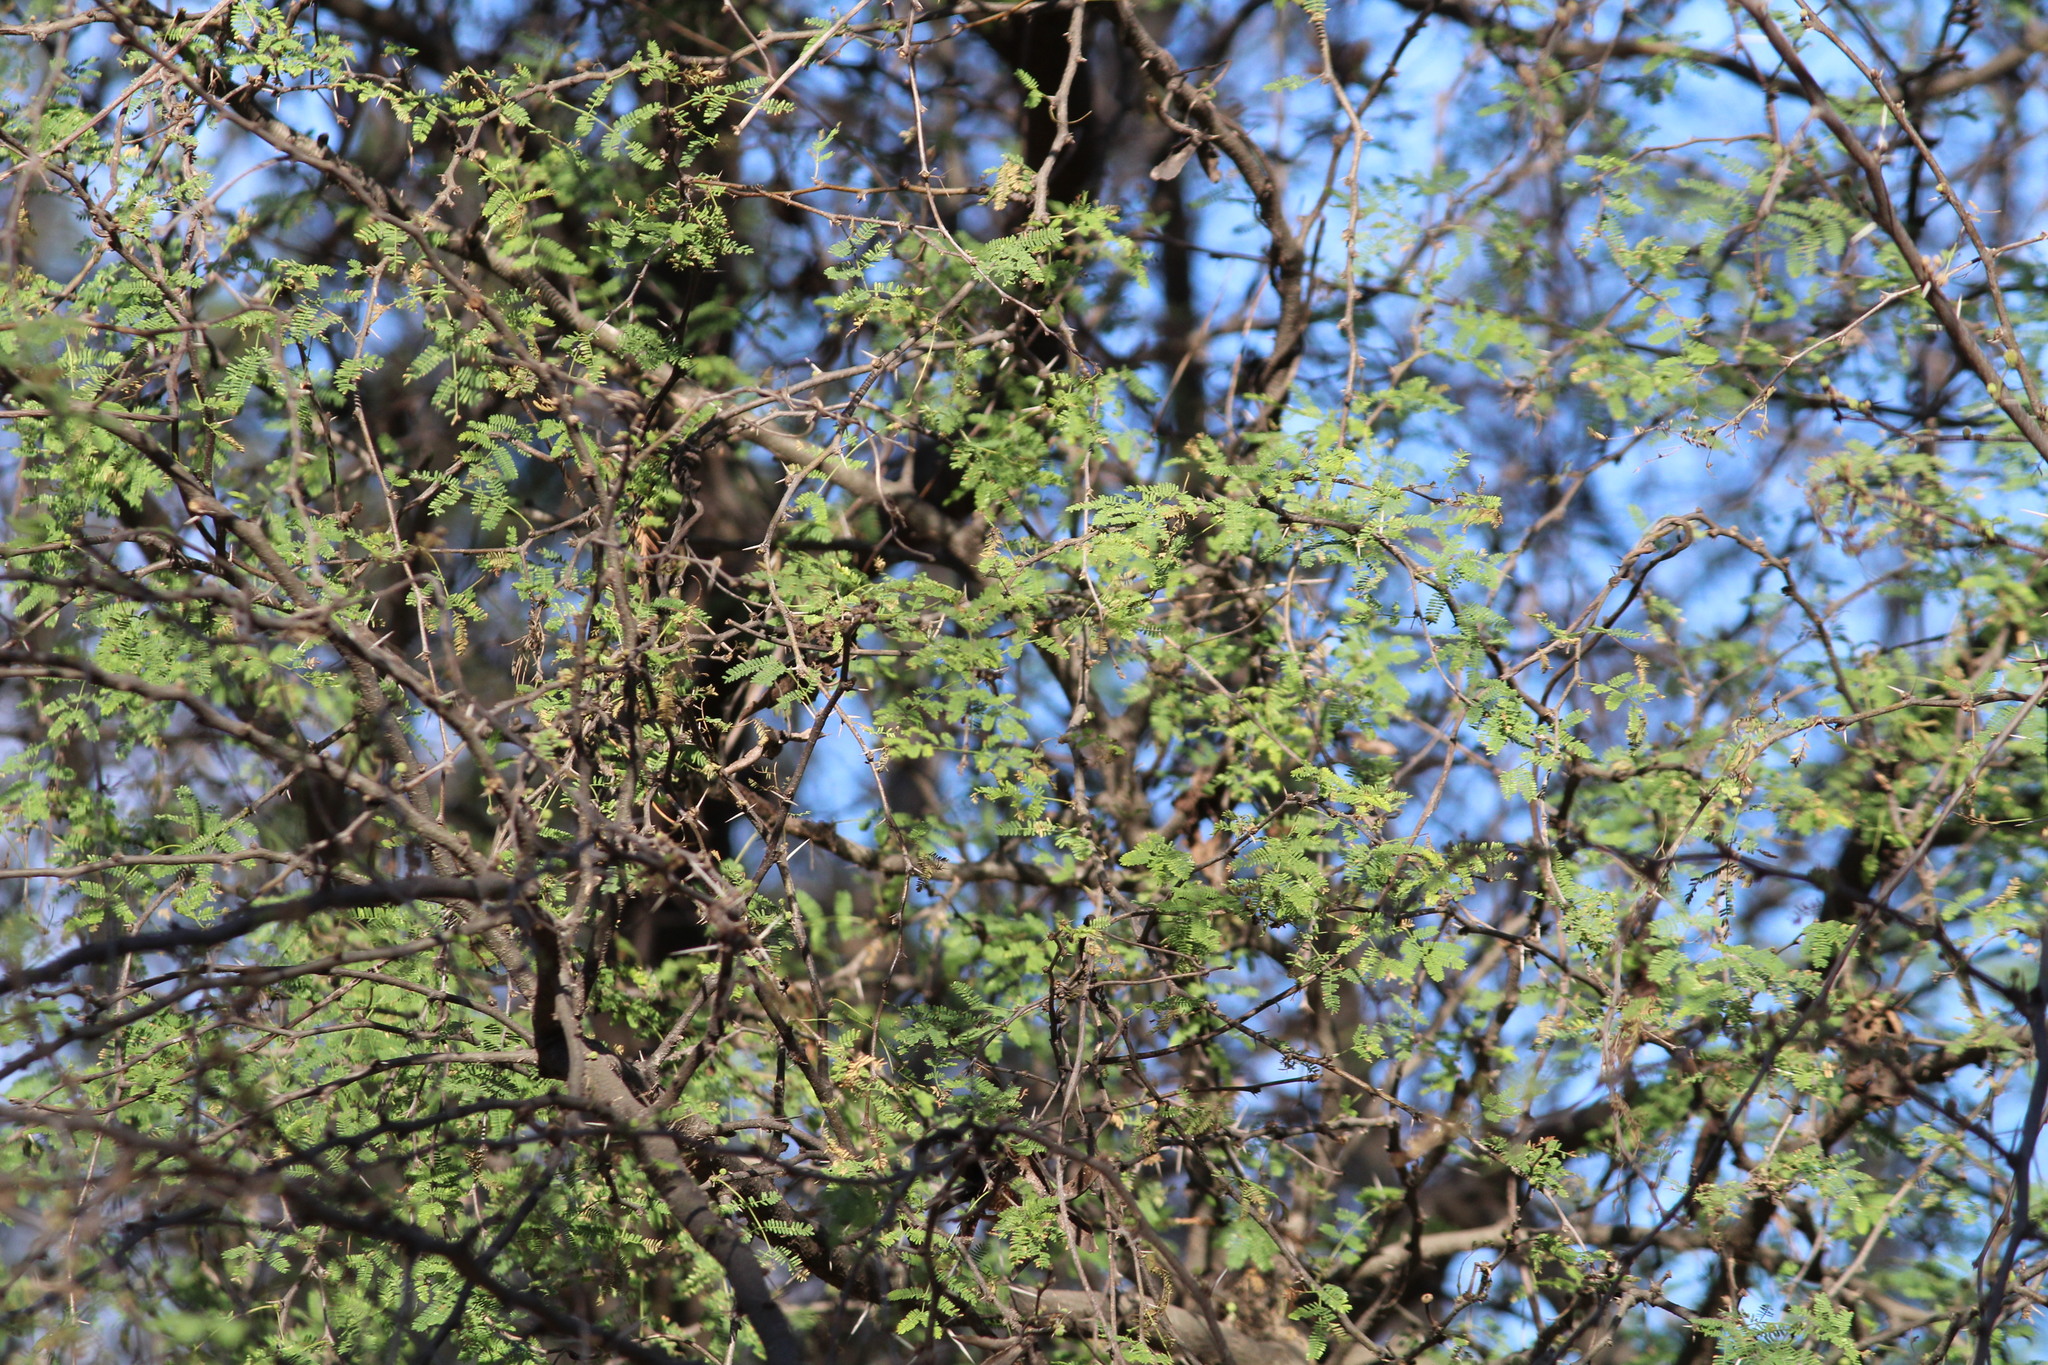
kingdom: Plantae
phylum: Tracheophyta
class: Magnoliopsida
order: Fabales
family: Fabaceae
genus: Vachellia
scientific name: Vachellia farnesiana
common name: Sweet acacia
